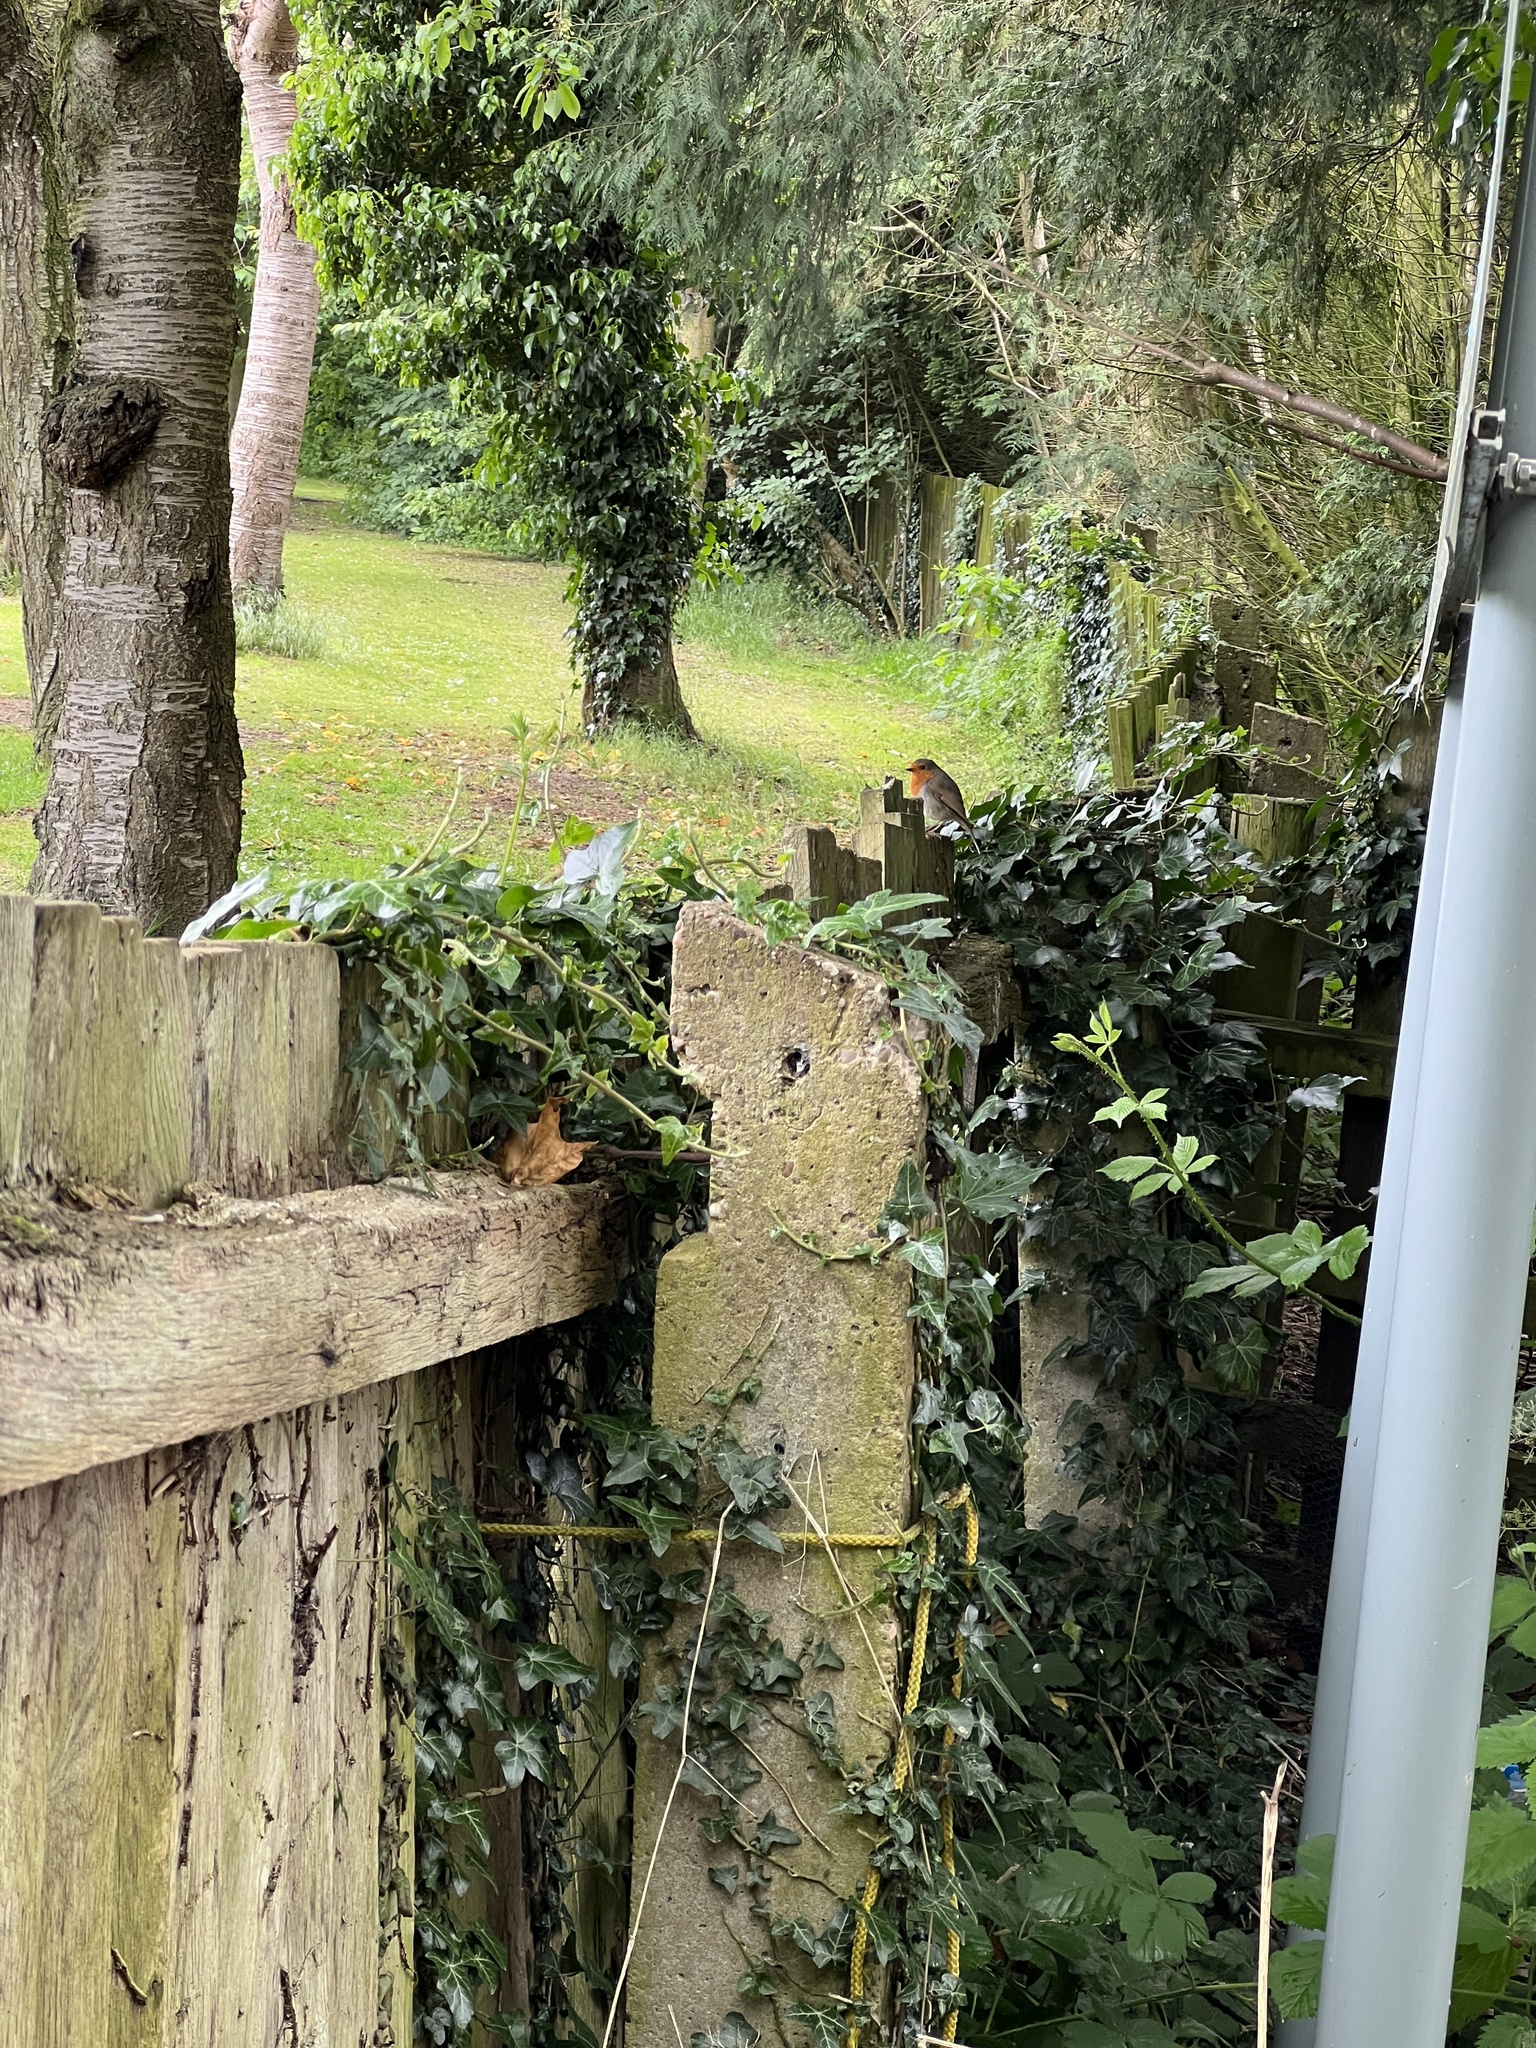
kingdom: Animalia
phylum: Chordata
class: Aves
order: Passeriformes
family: Muscicapidae
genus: Erithacus
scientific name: Erithacus rubecula
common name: European robin
